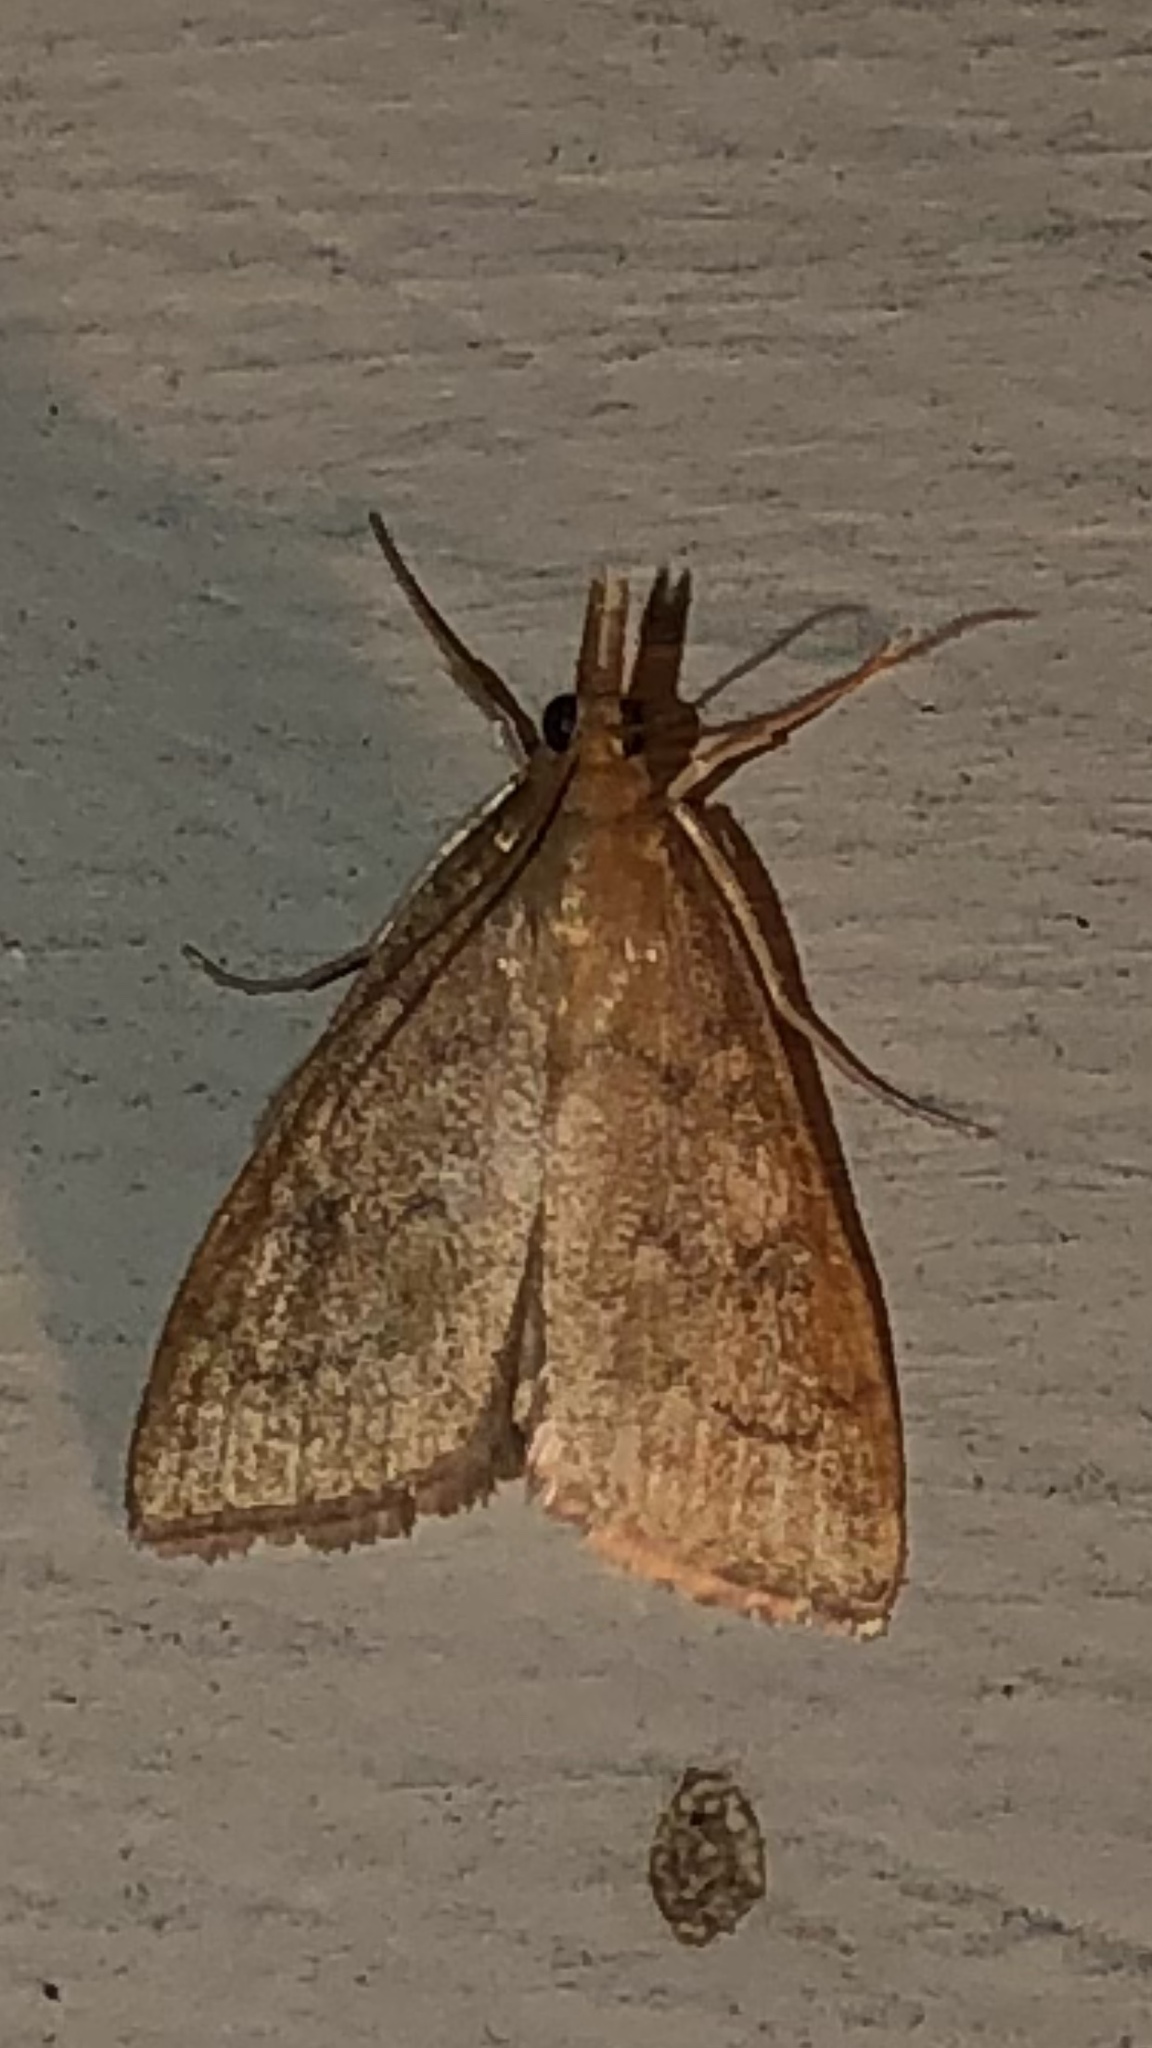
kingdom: Animalia
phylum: Arthropoda
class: Insecta
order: Lepidoptera
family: Crambidae
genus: Udea
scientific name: Udea rubigalis
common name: Celery leaftier moth
